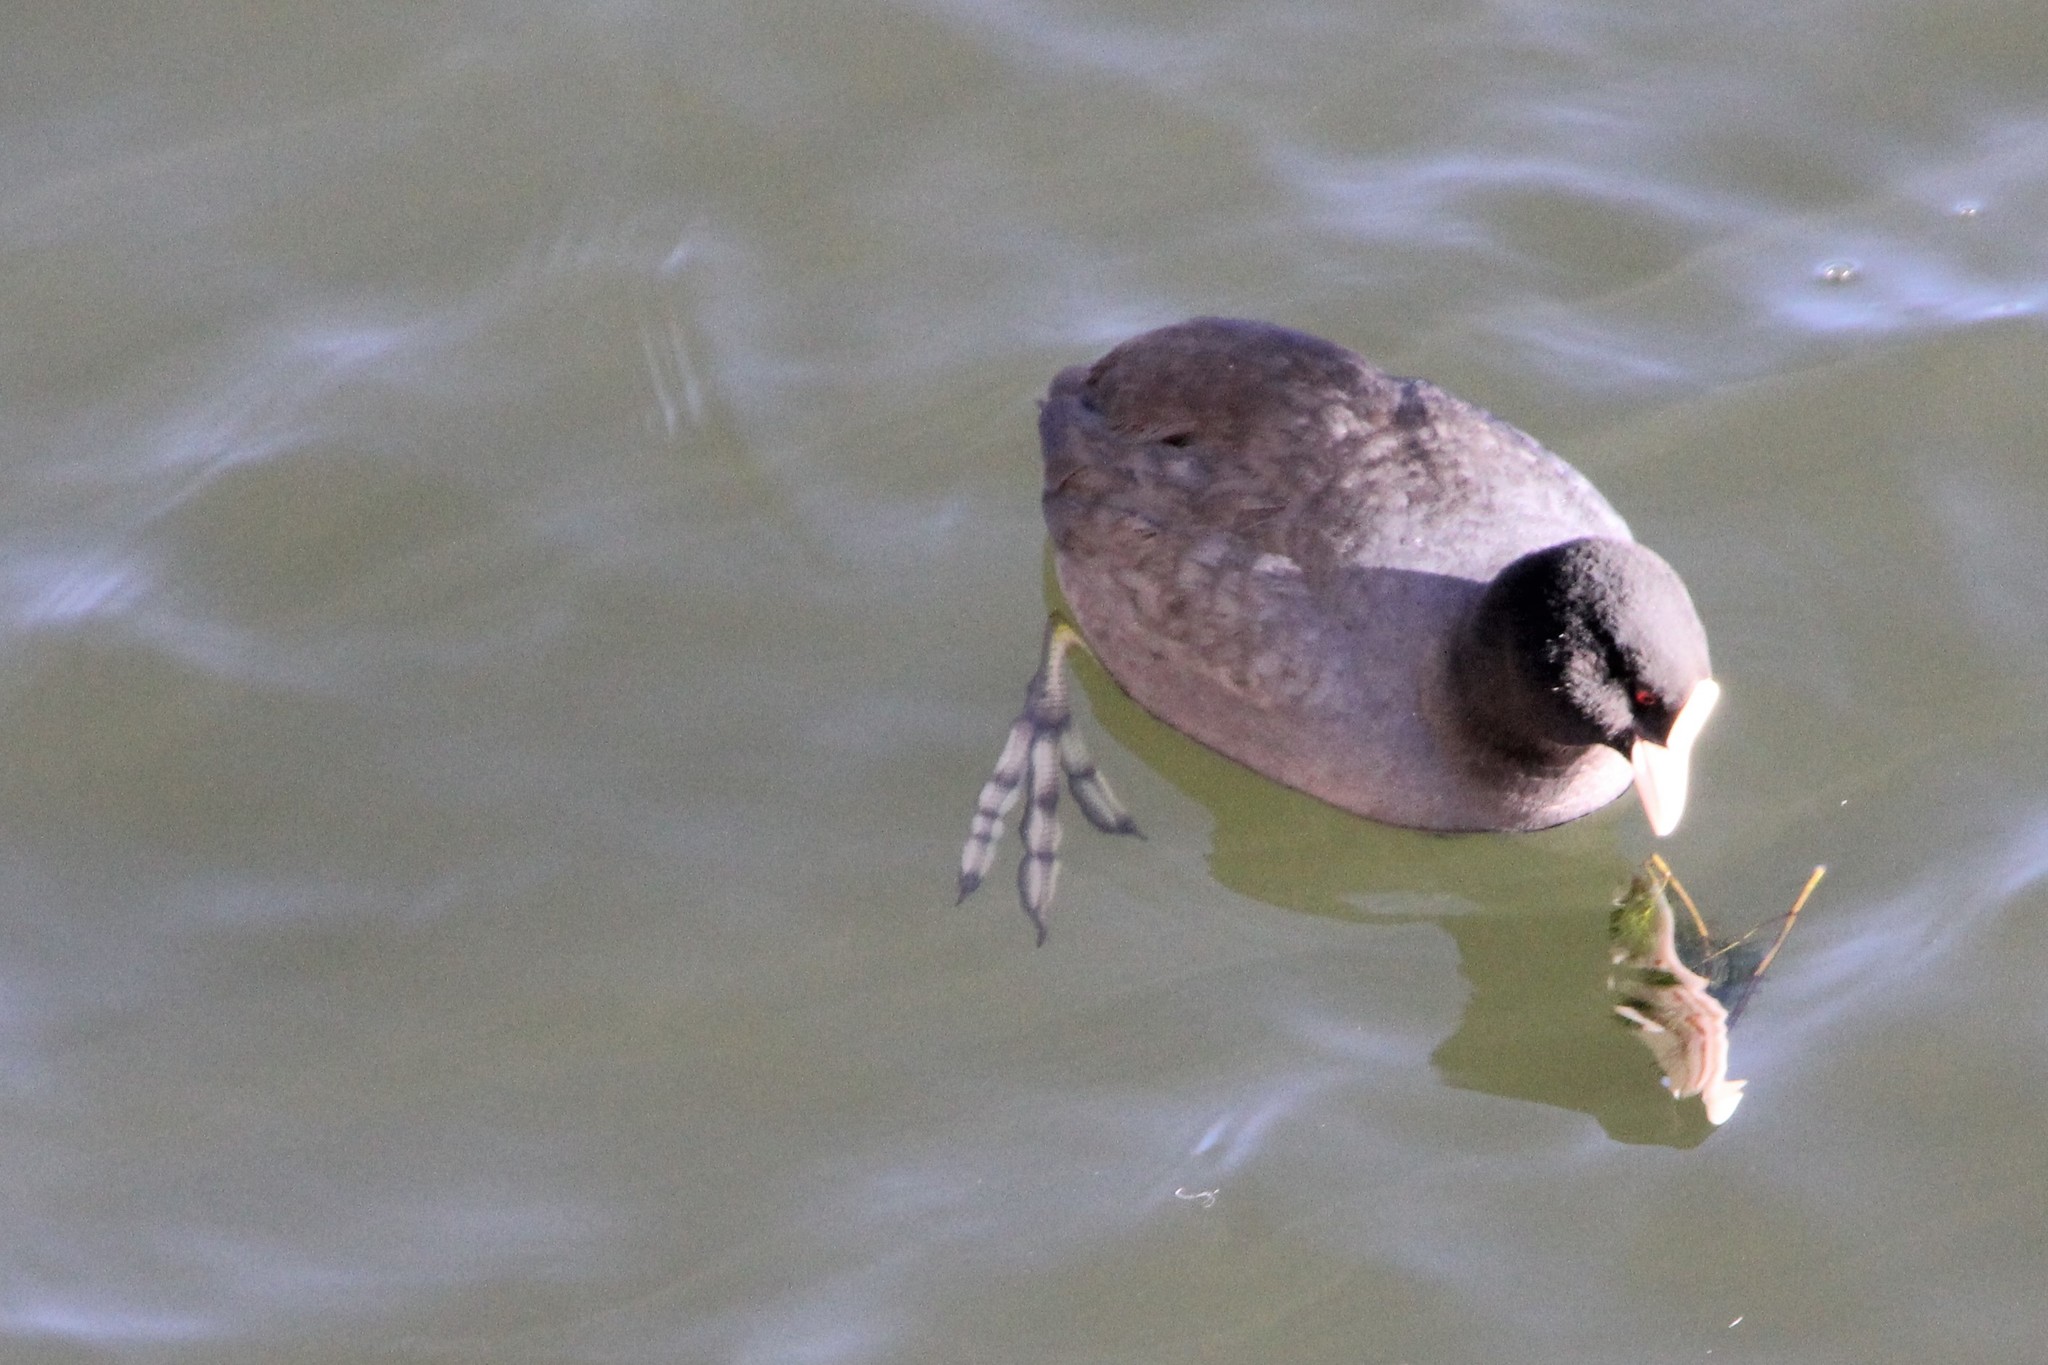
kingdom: Animalia
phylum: Chordata
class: Aves
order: Gruiformes
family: Rallidae
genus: Fulica
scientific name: Fulica atra
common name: Eurasian coot
